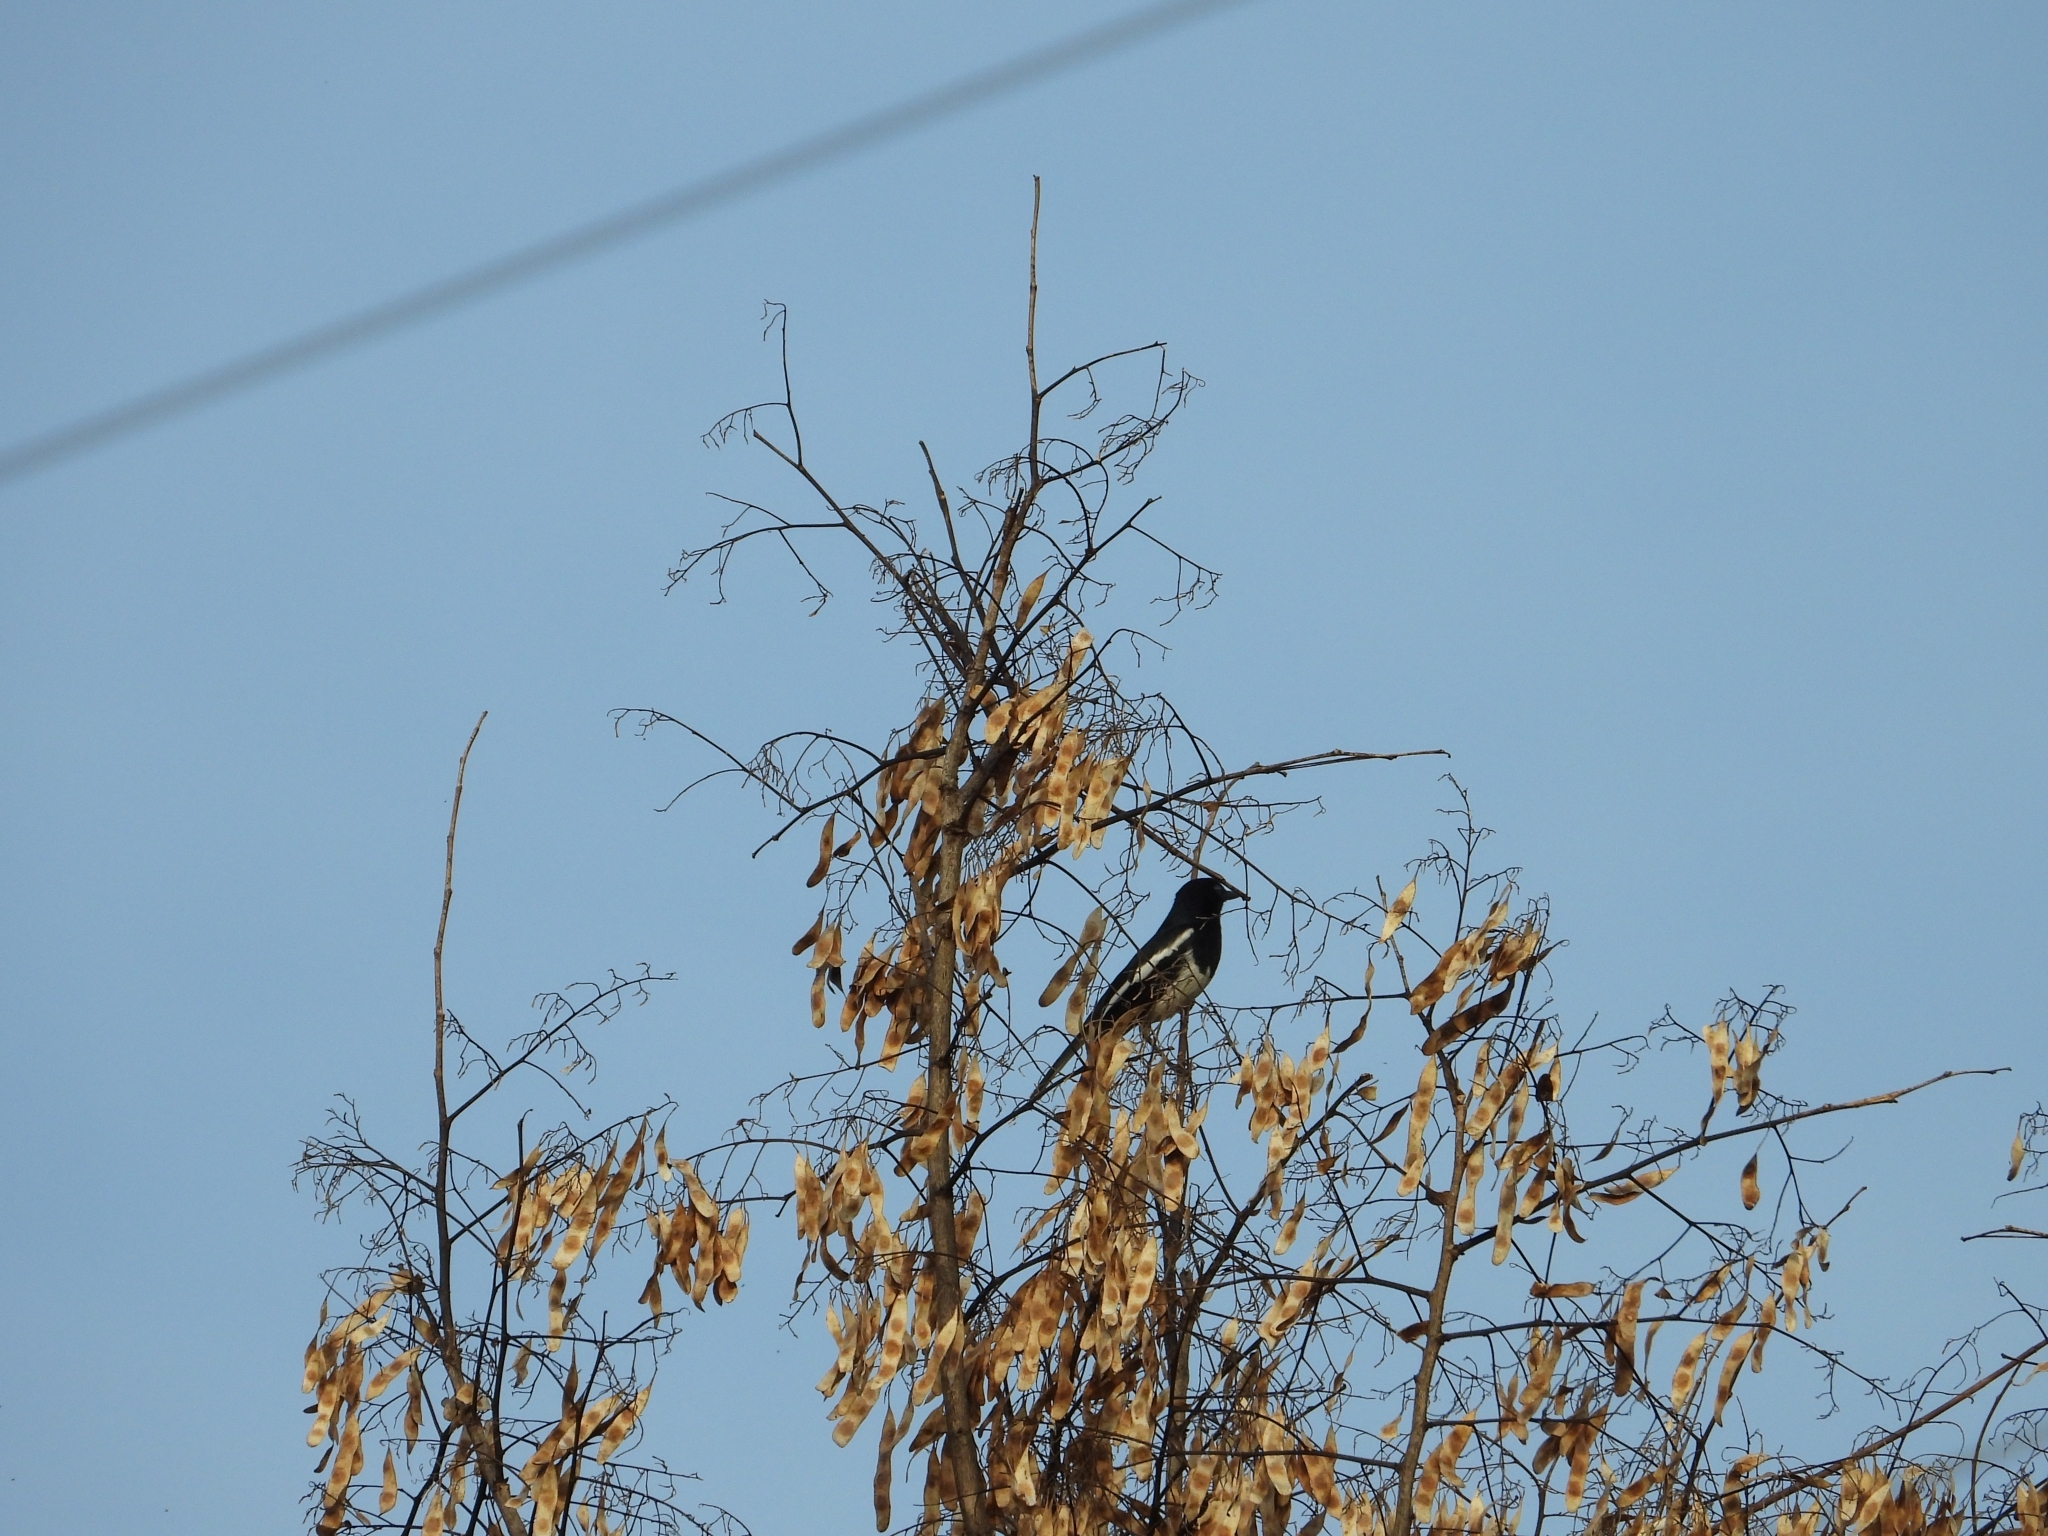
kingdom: Animalia
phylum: Chordata
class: Aves
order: Passeriformes
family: Muscicapidae
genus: Copsychus
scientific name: Copsychus saularis
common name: Oriental magpie-robin
